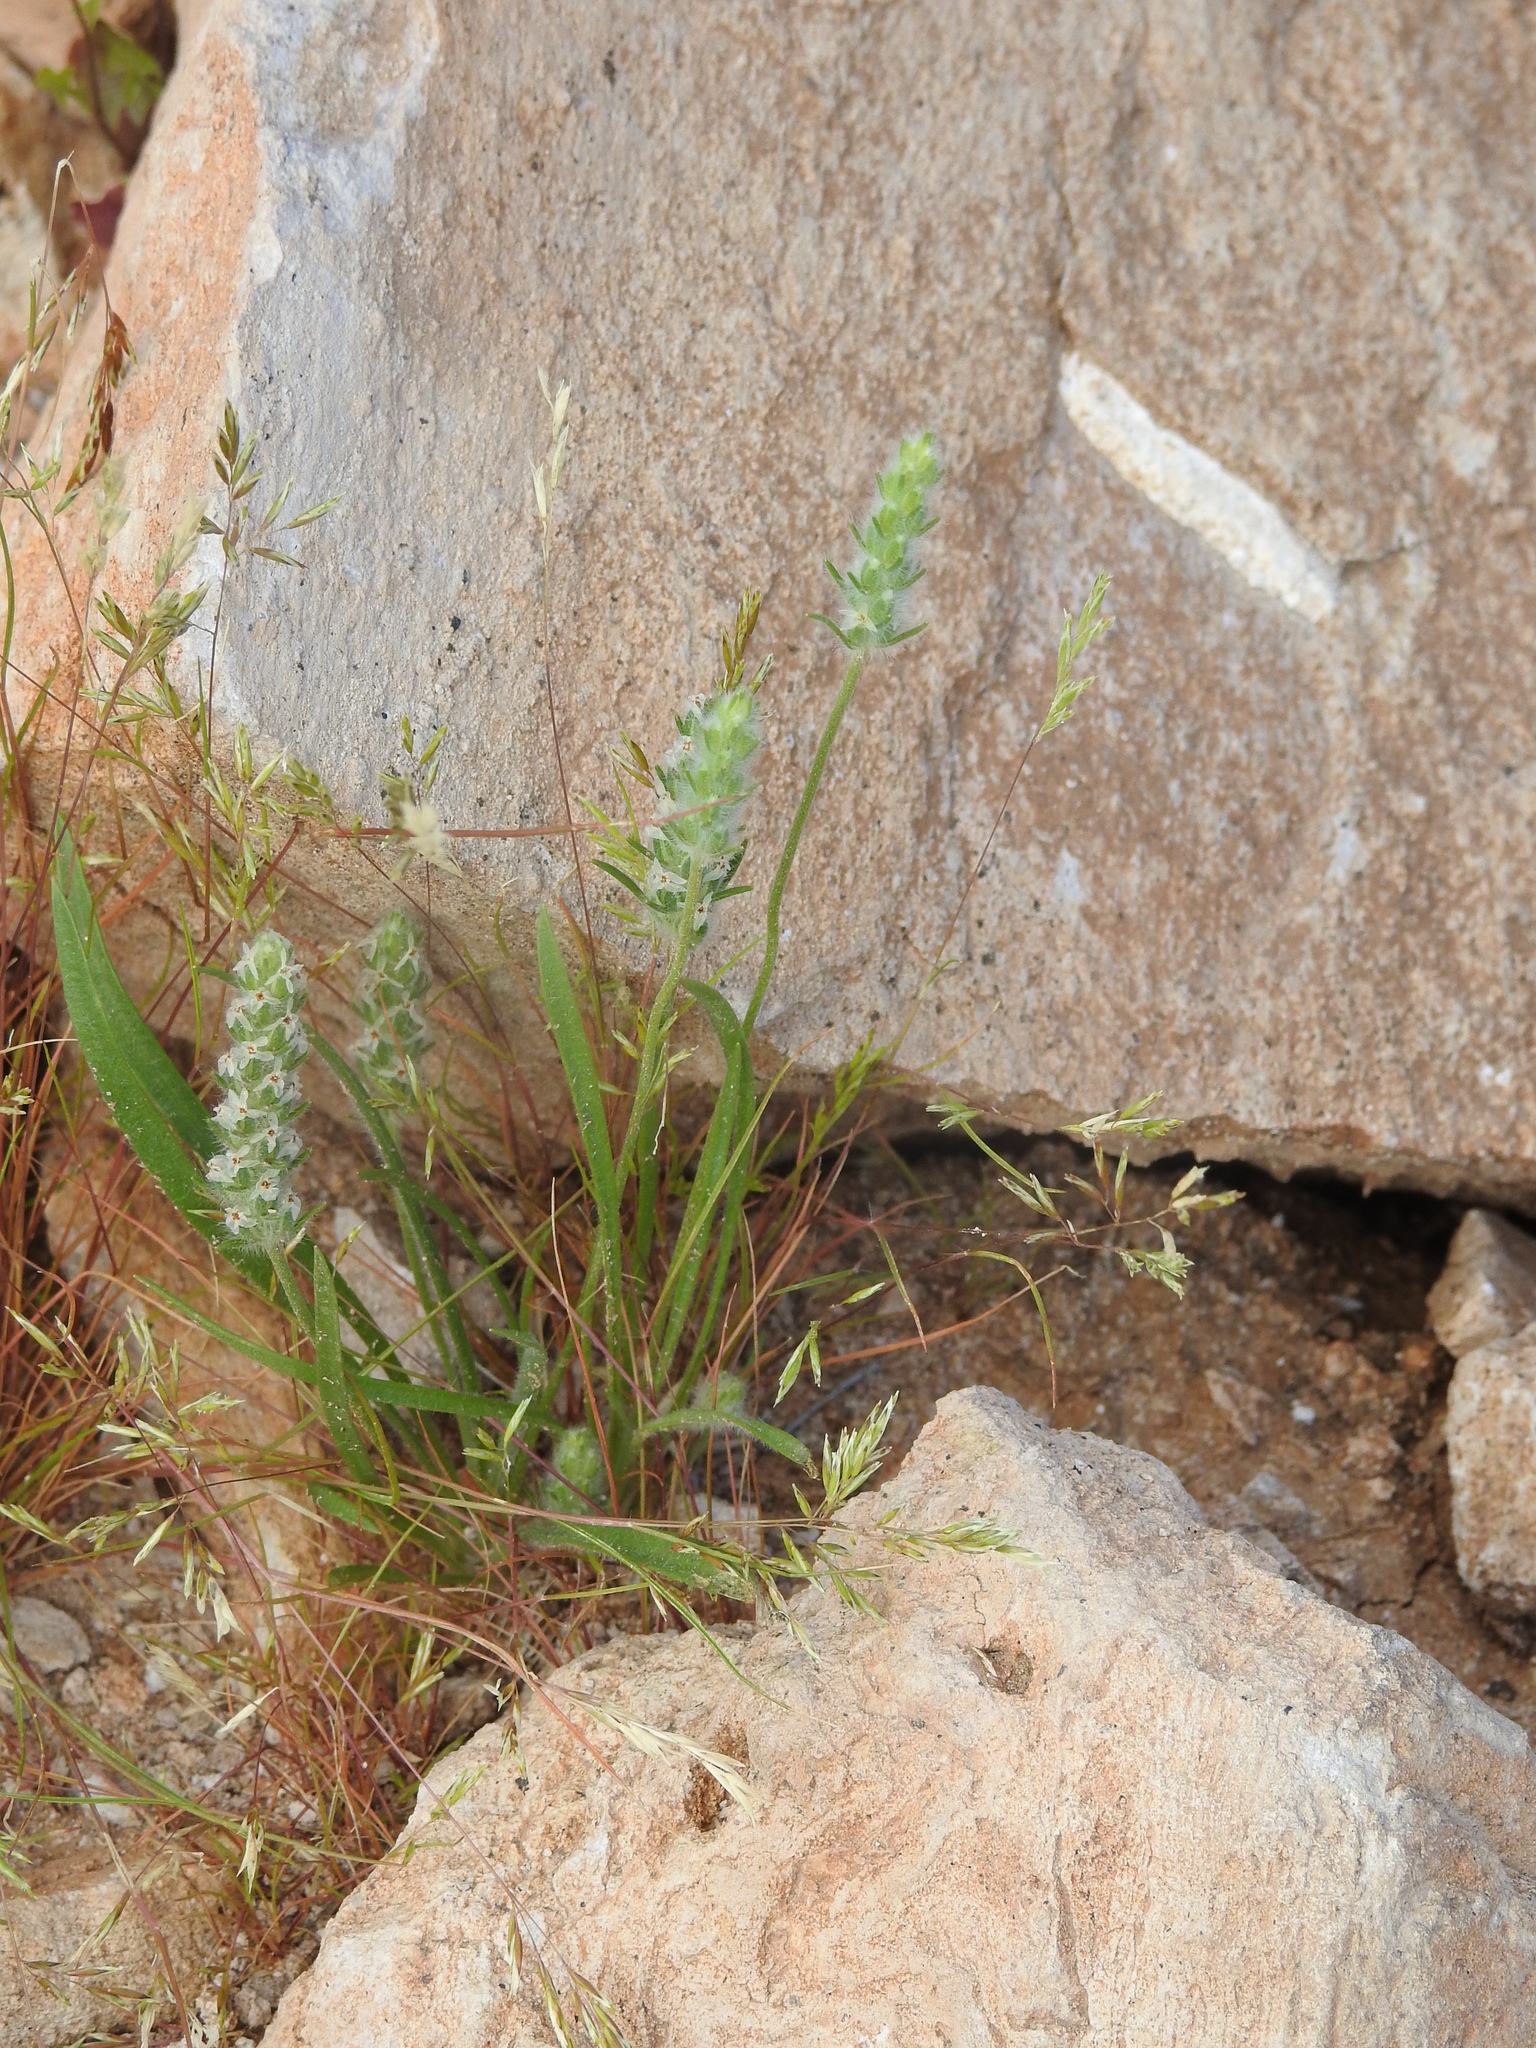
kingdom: Plantae
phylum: Tracheophyta
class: Magnoliopsida
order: Lamiales
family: Plantaginaceae
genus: Plantago
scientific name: Plantago patagonica
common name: Patagonia indian-wheat
